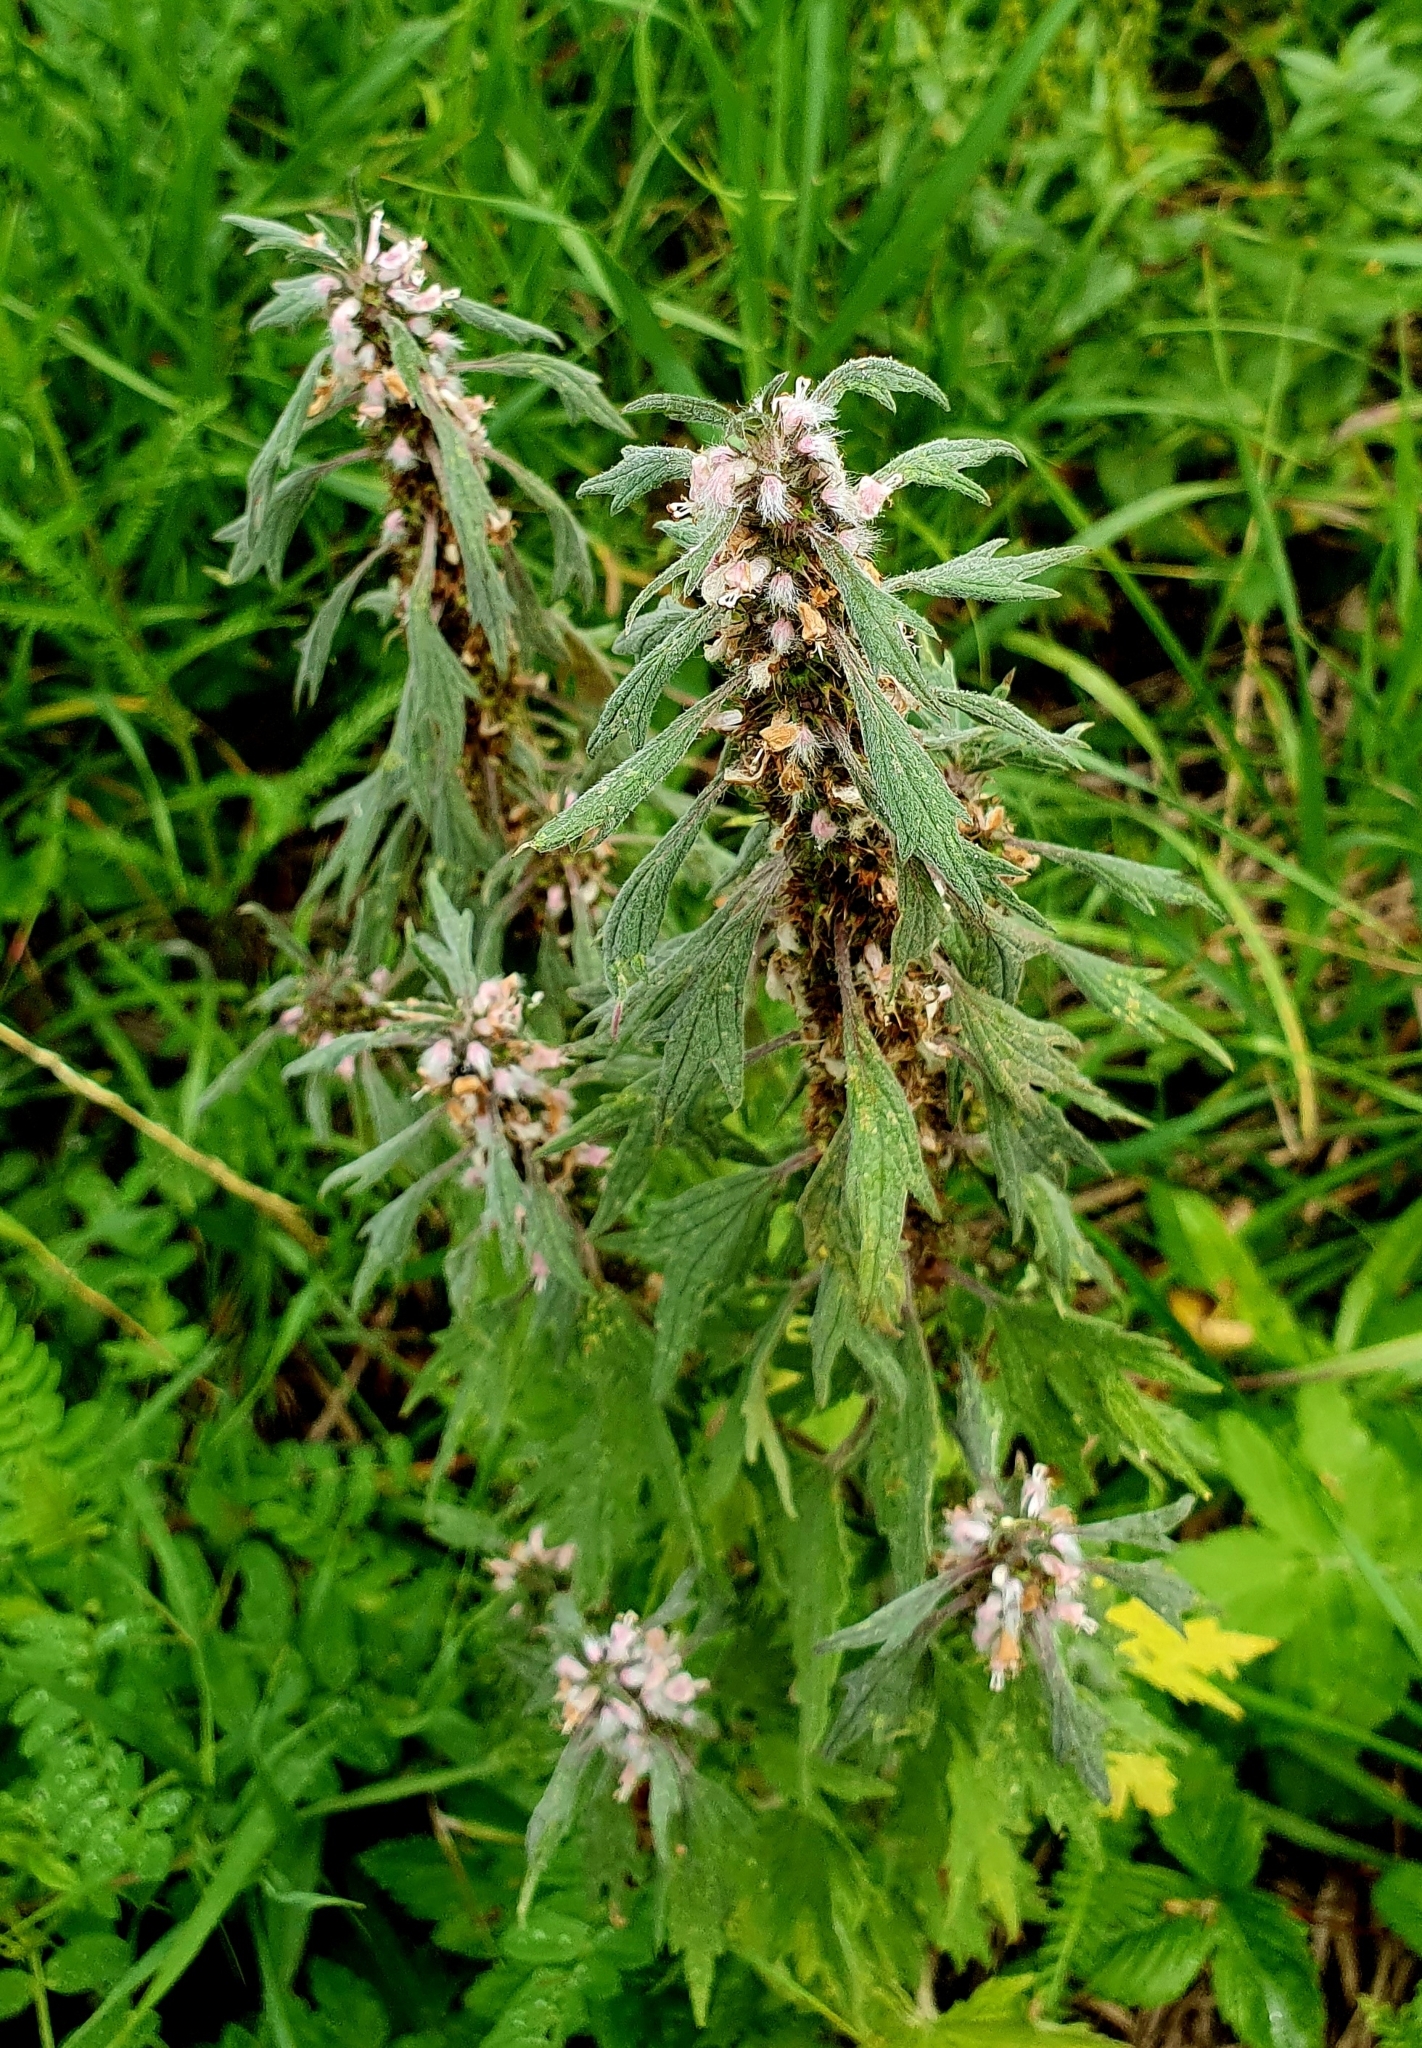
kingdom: Plantae
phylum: Tracheophyta
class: Magnoliopsida
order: Lamiales
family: Lamiaceae
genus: Leonurus
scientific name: Leonurus quinquelobatus
